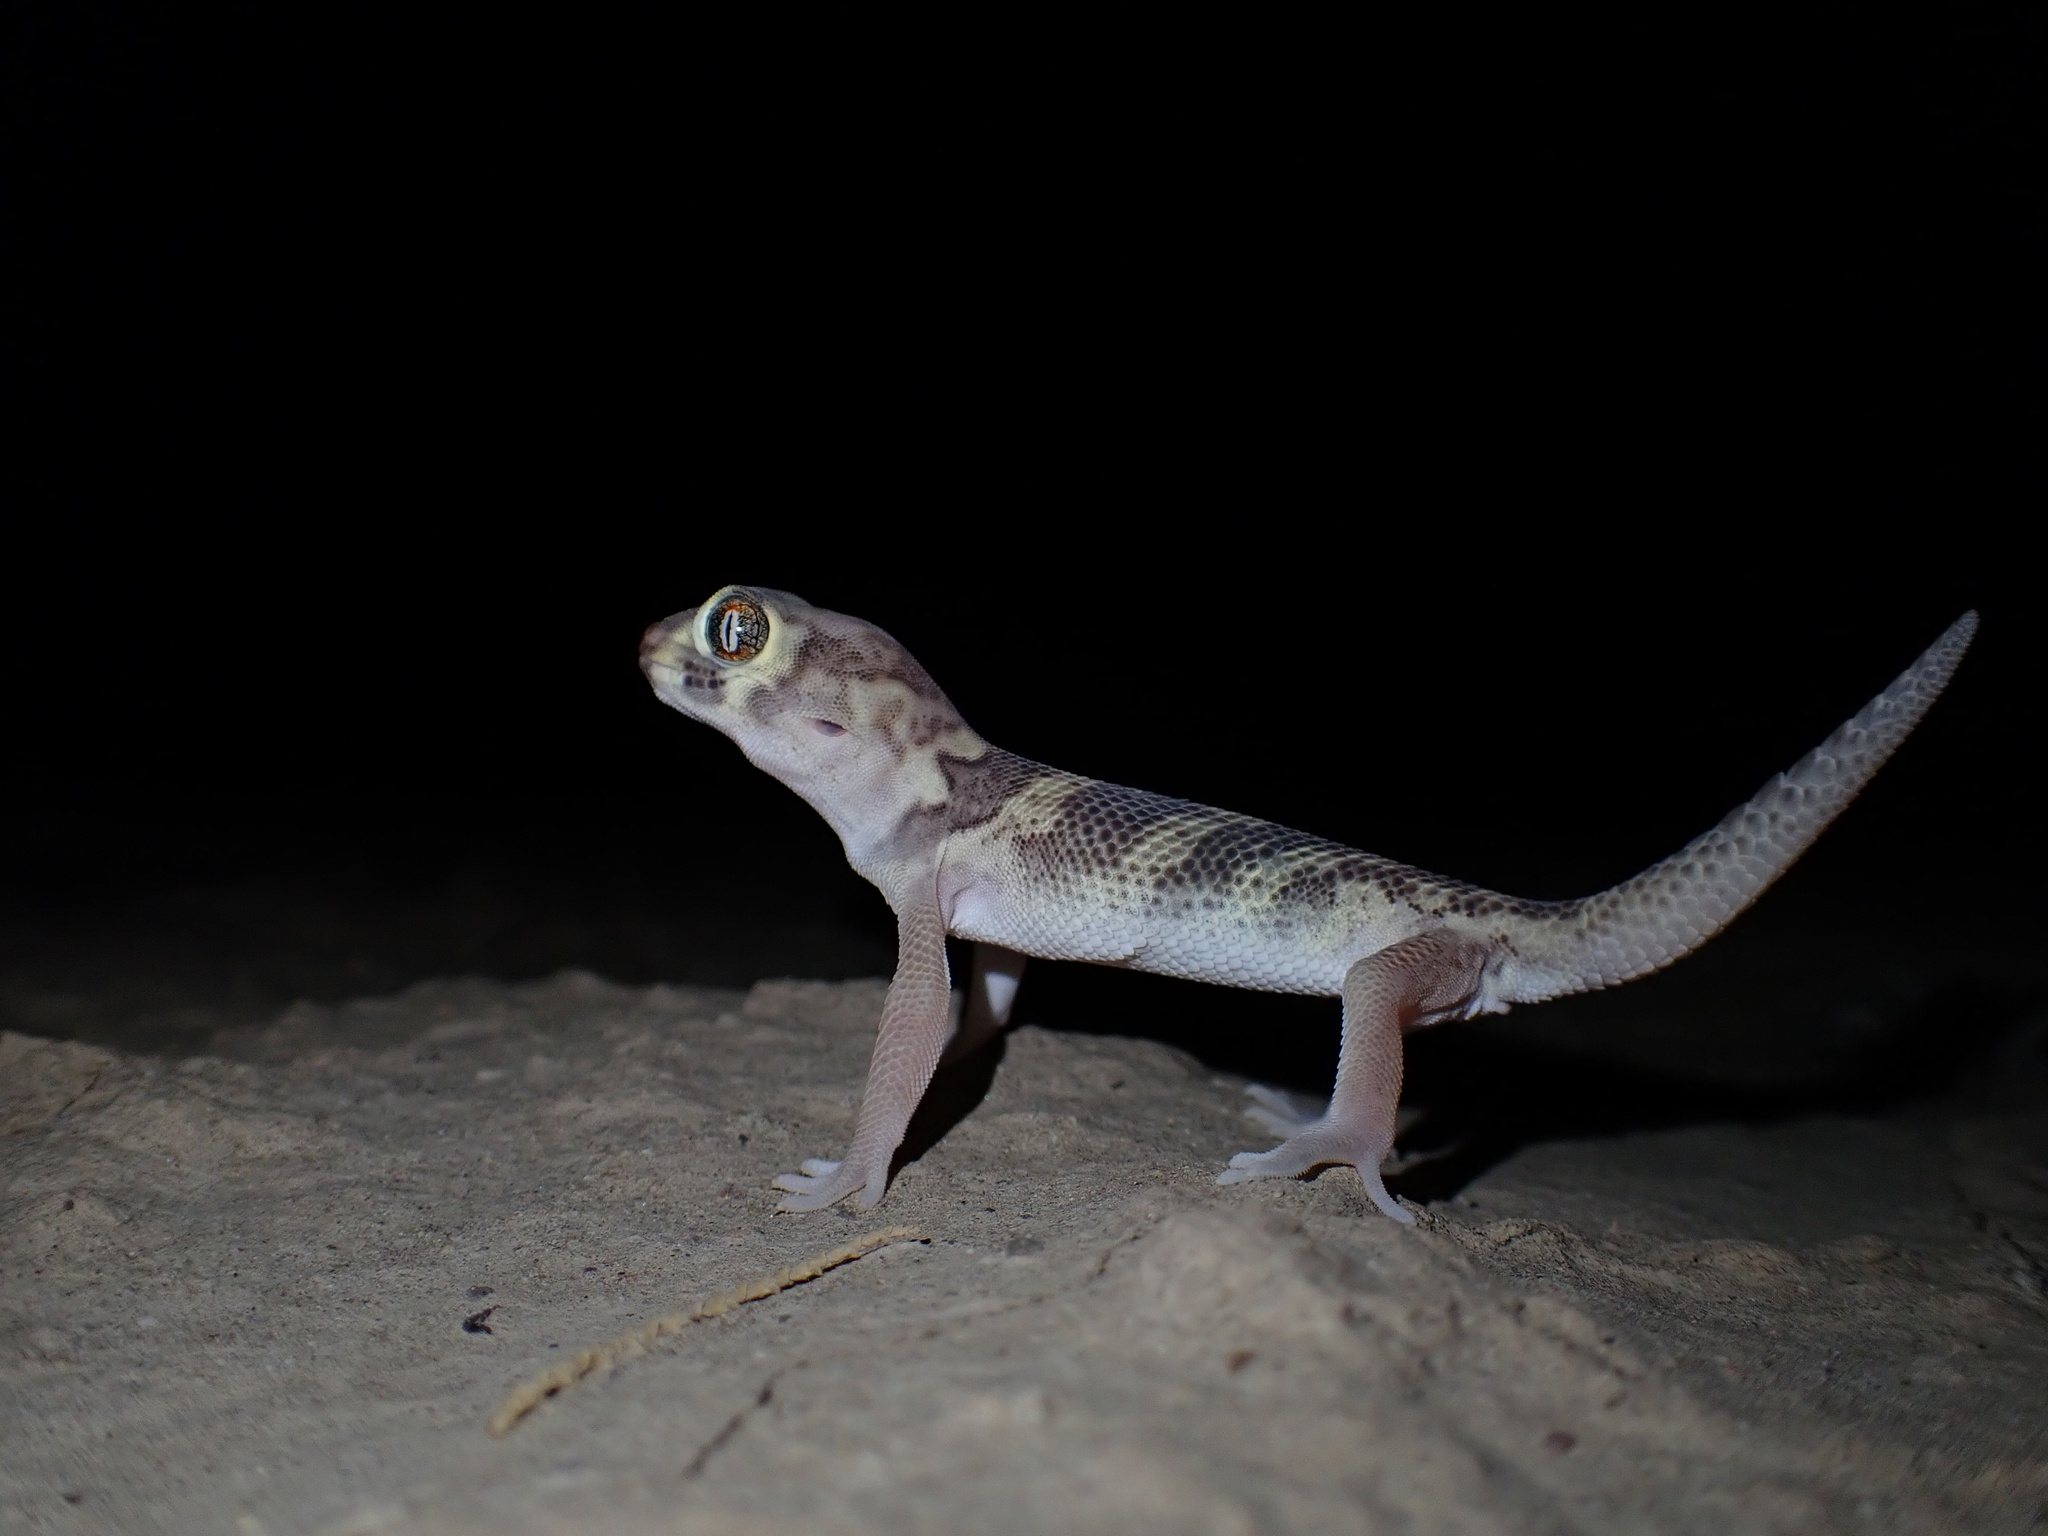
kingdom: Animalia
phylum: Chordata
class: Squamata
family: Sphaerodactylidae
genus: Teratoscincus
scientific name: Teratoscincus bedriagai
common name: Bedriaga's plate-tailed gecko
